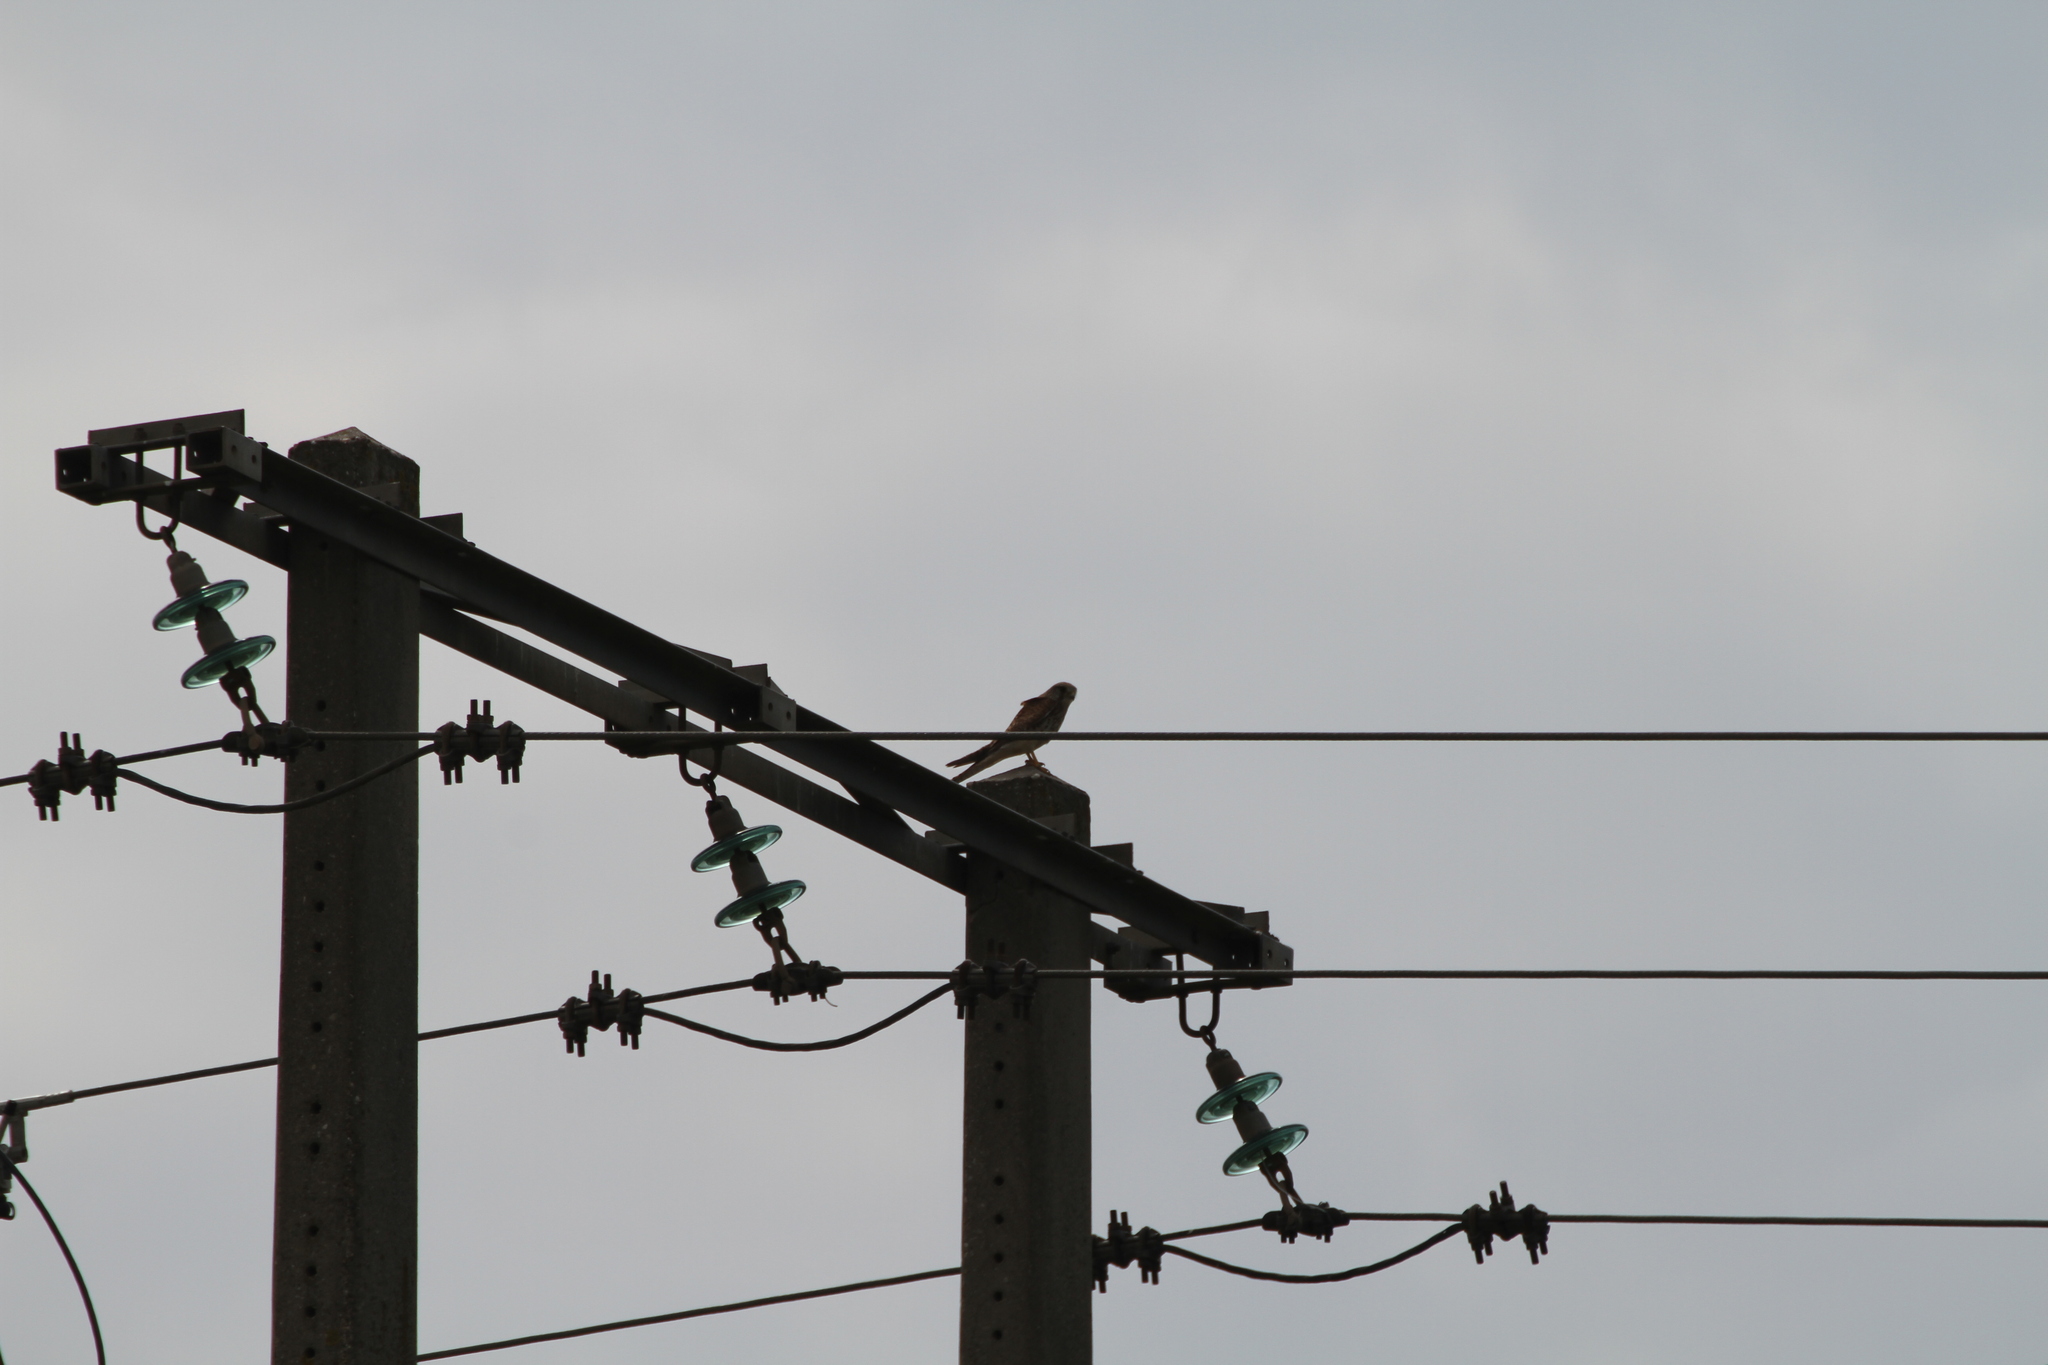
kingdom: Animalia
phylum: Chordata
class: Aves
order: Falconiformes
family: Falconidae
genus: Falco
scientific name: Falco tinnunculus
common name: Common kestrel
